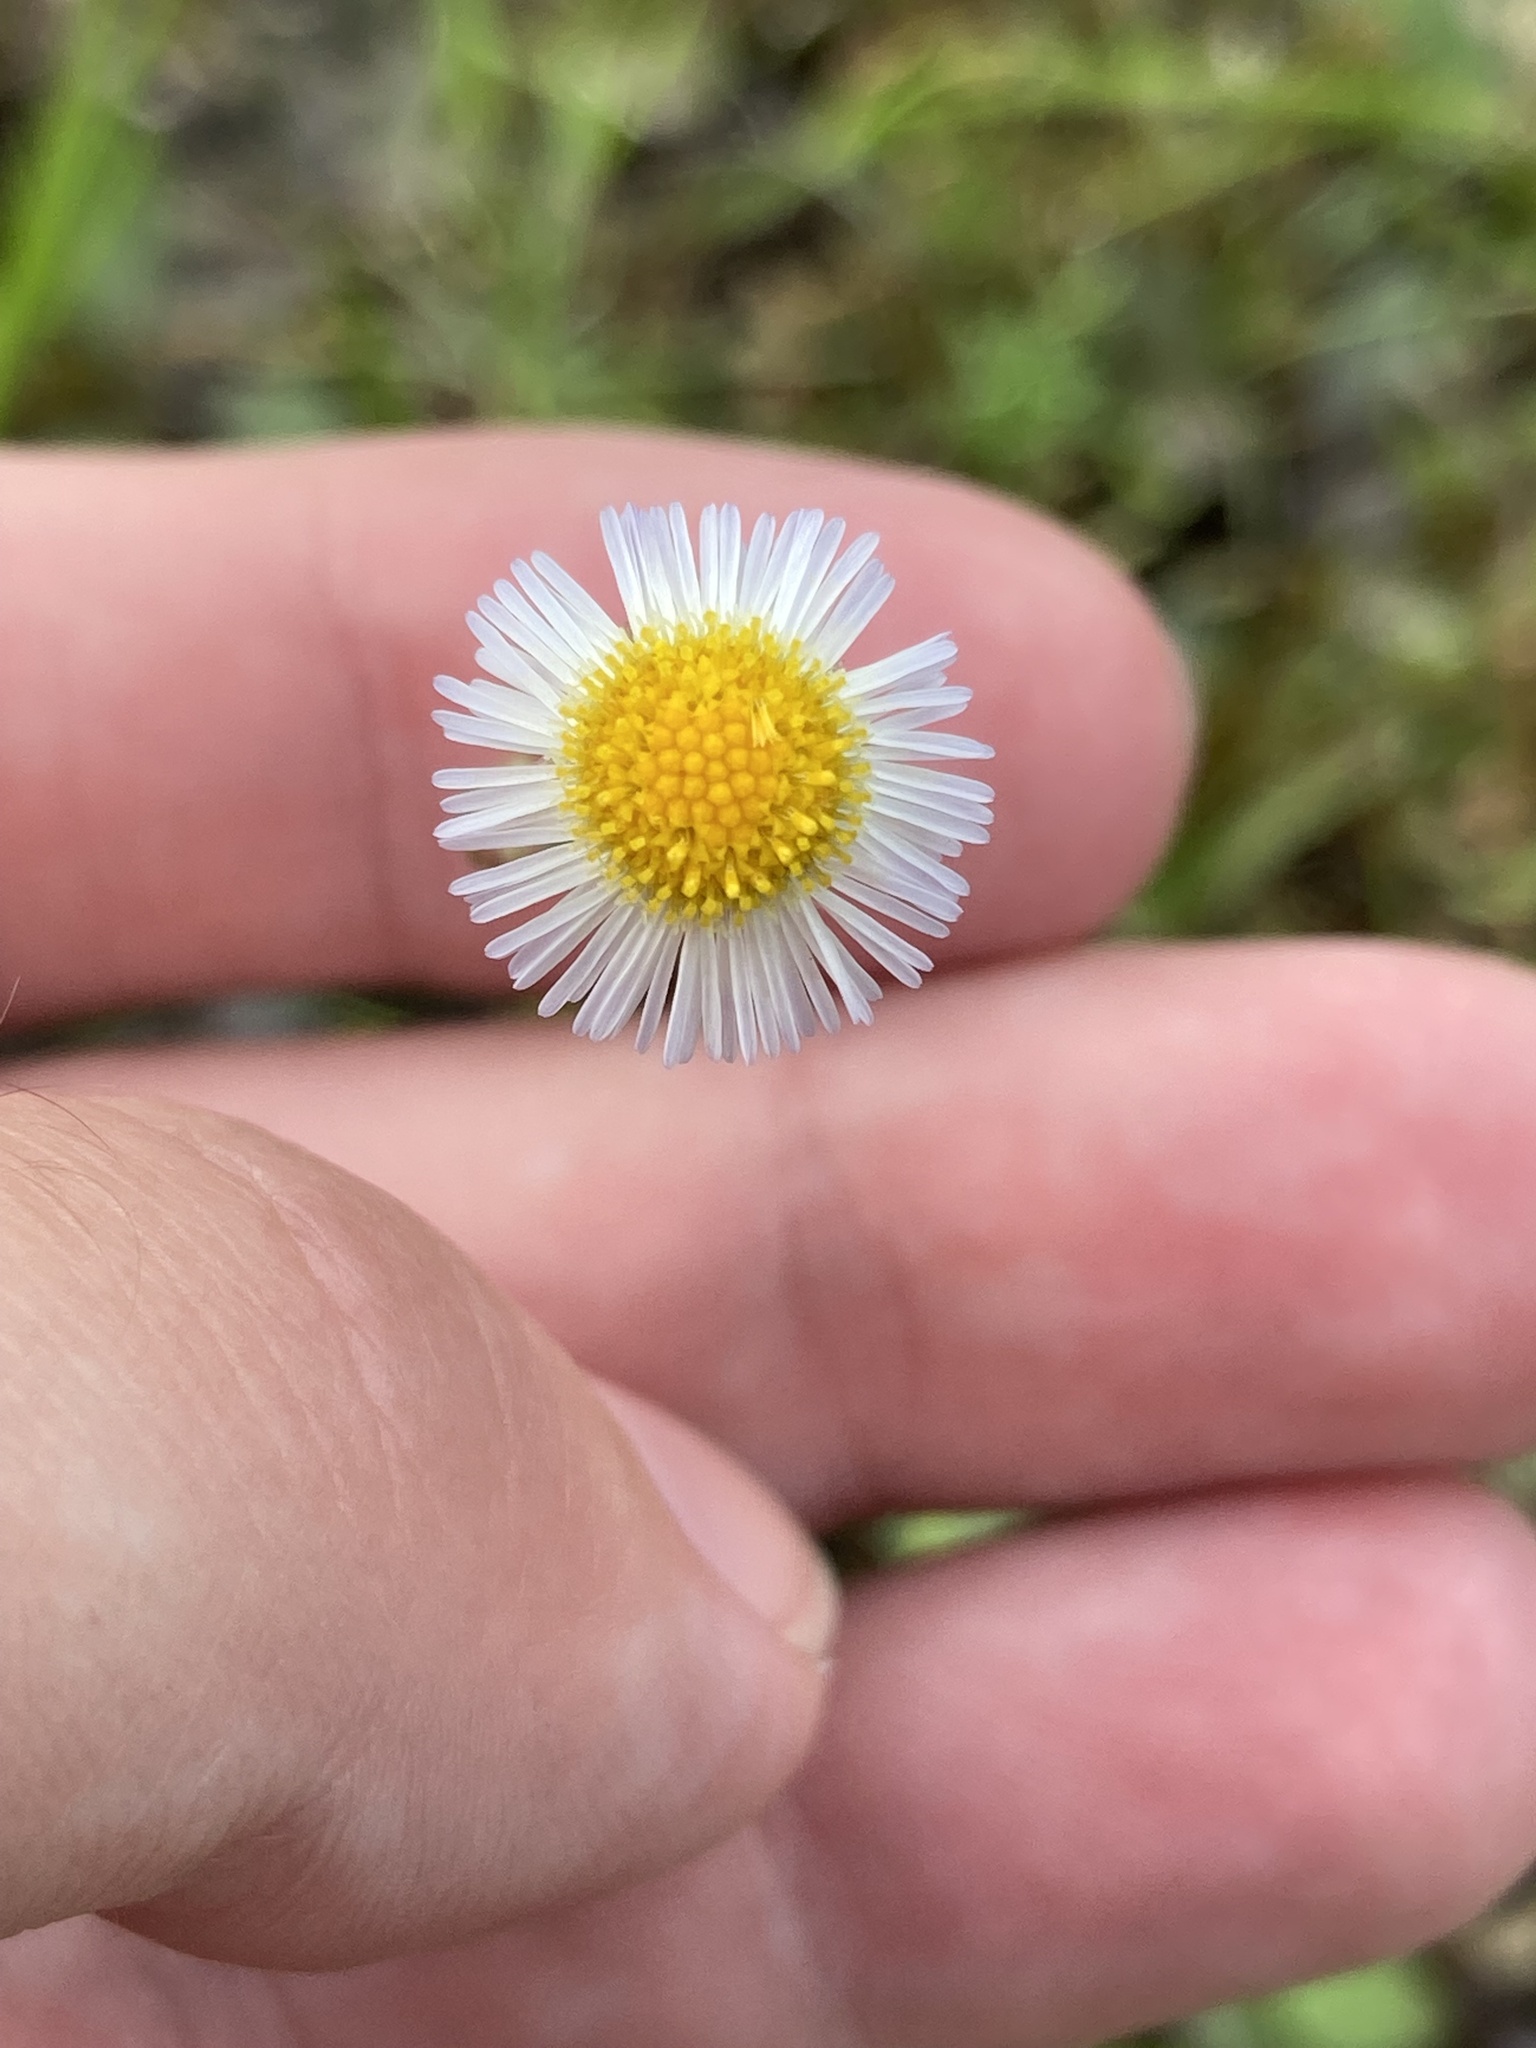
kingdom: Plantae
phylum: Tracheophyta
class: Magnoliopsida
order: Asterales
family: Asteraceae
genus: Erigeron
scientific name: Erigeron quercifolius
